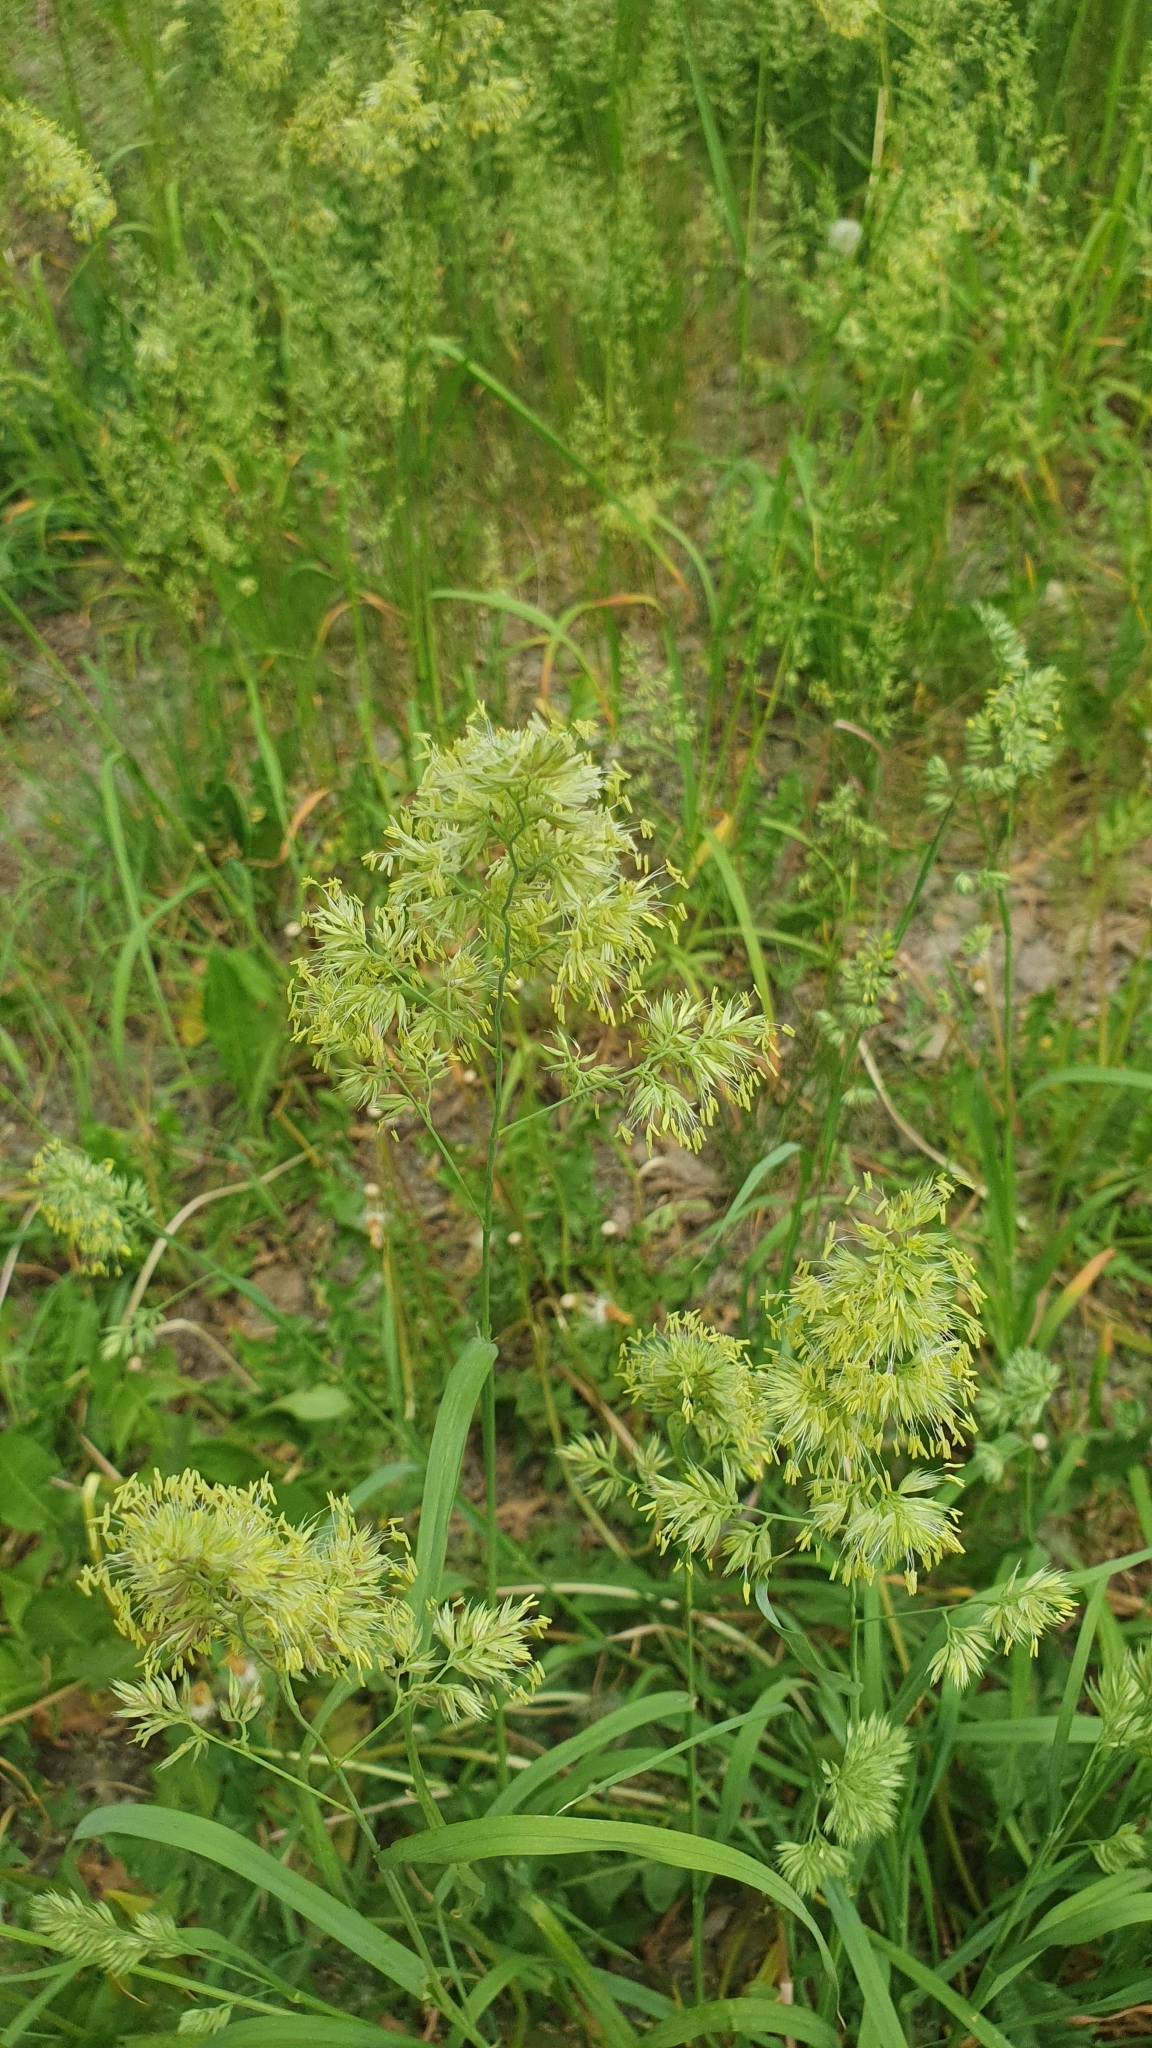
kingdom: Plantae
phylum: Tracheophyta
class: Liliopsida
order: Poales
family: Poaceae
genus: Dactylis
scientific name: Dactylis glomerata
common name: Orchardgrass
